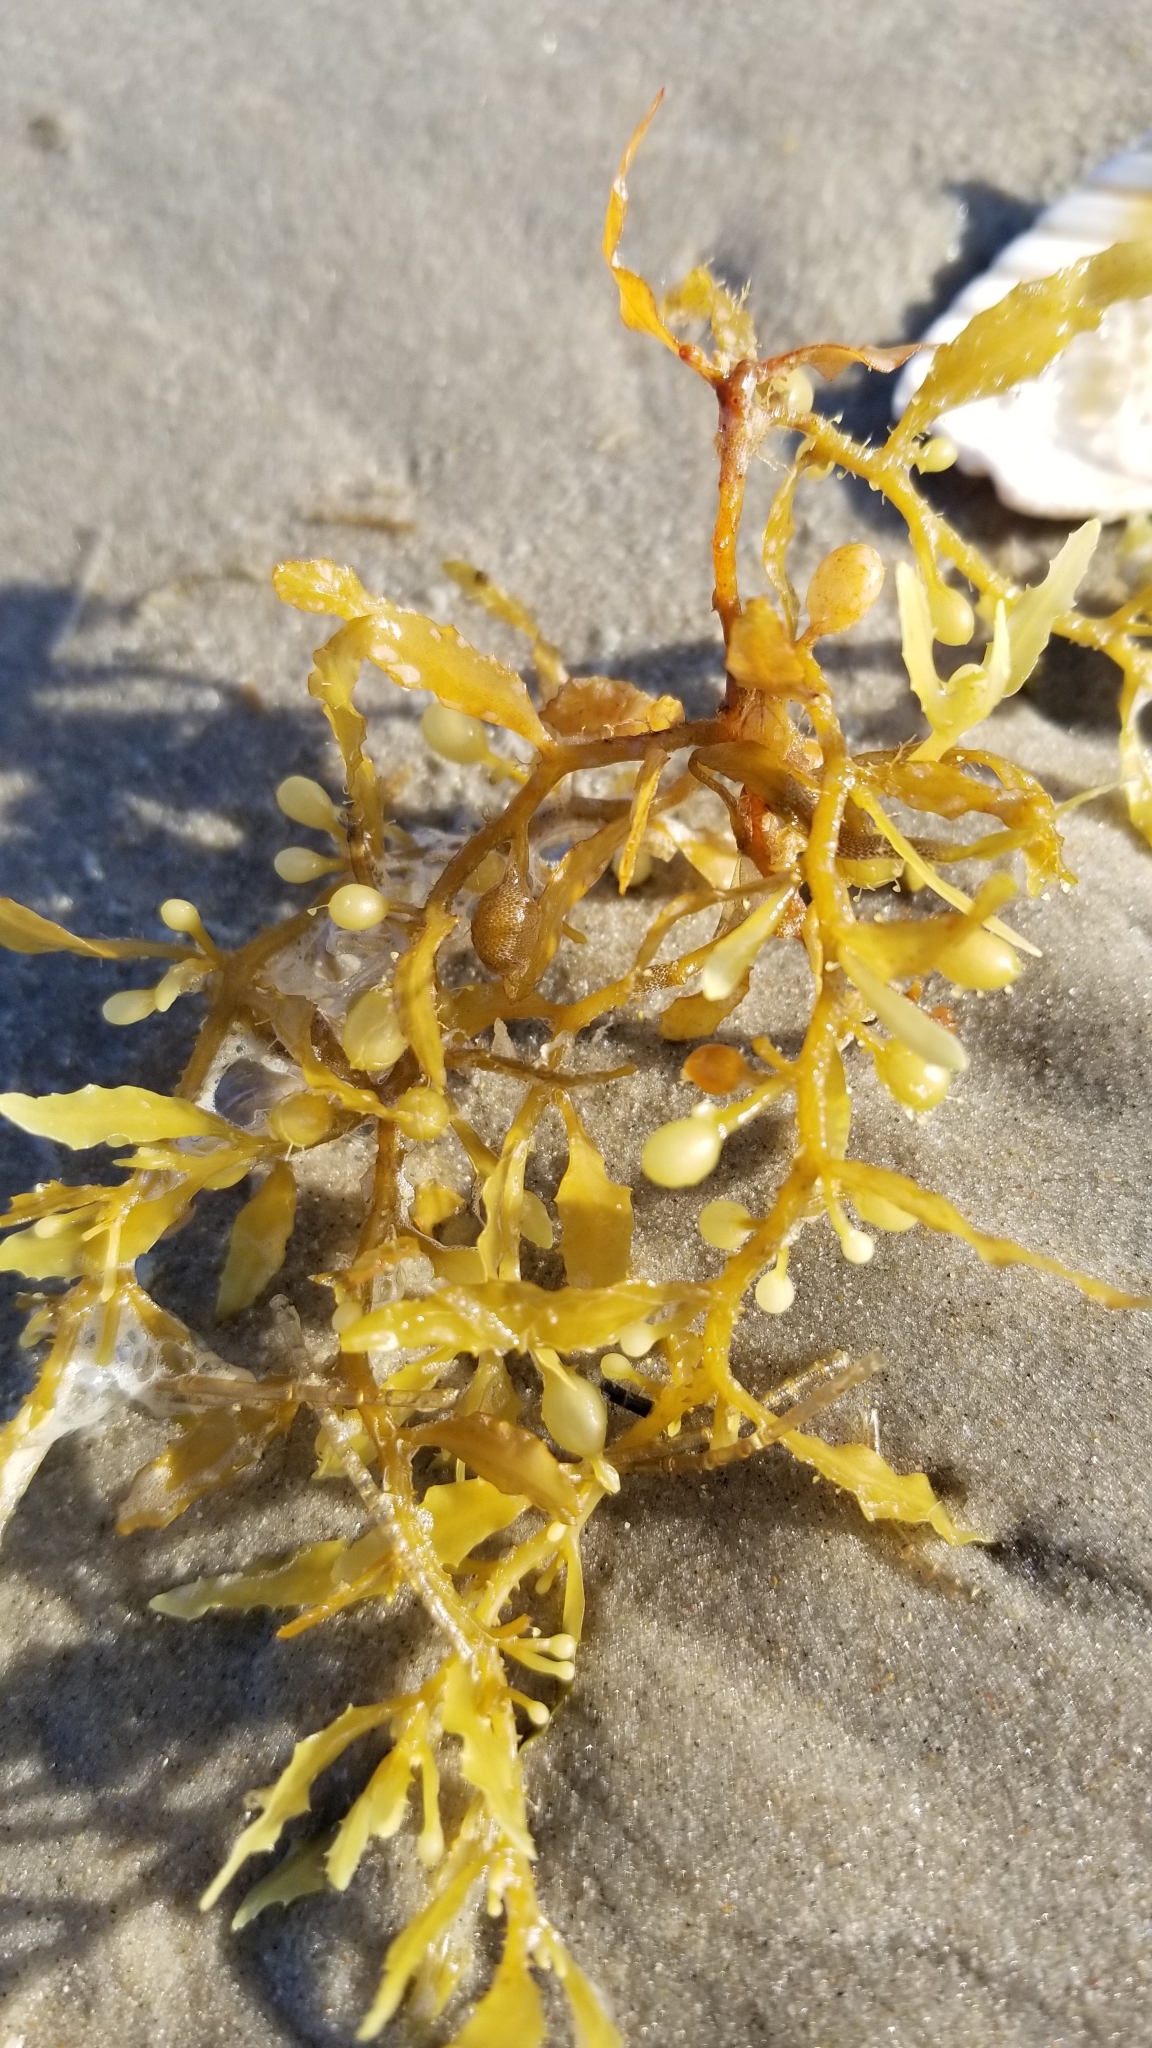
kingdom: Chromista
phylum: Ochrophyta
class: Phaeophyceae
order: Fucales
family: Sargassaceae
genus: Sargassum
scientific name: Sargassum fluitans
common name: Sargassum seaweed
